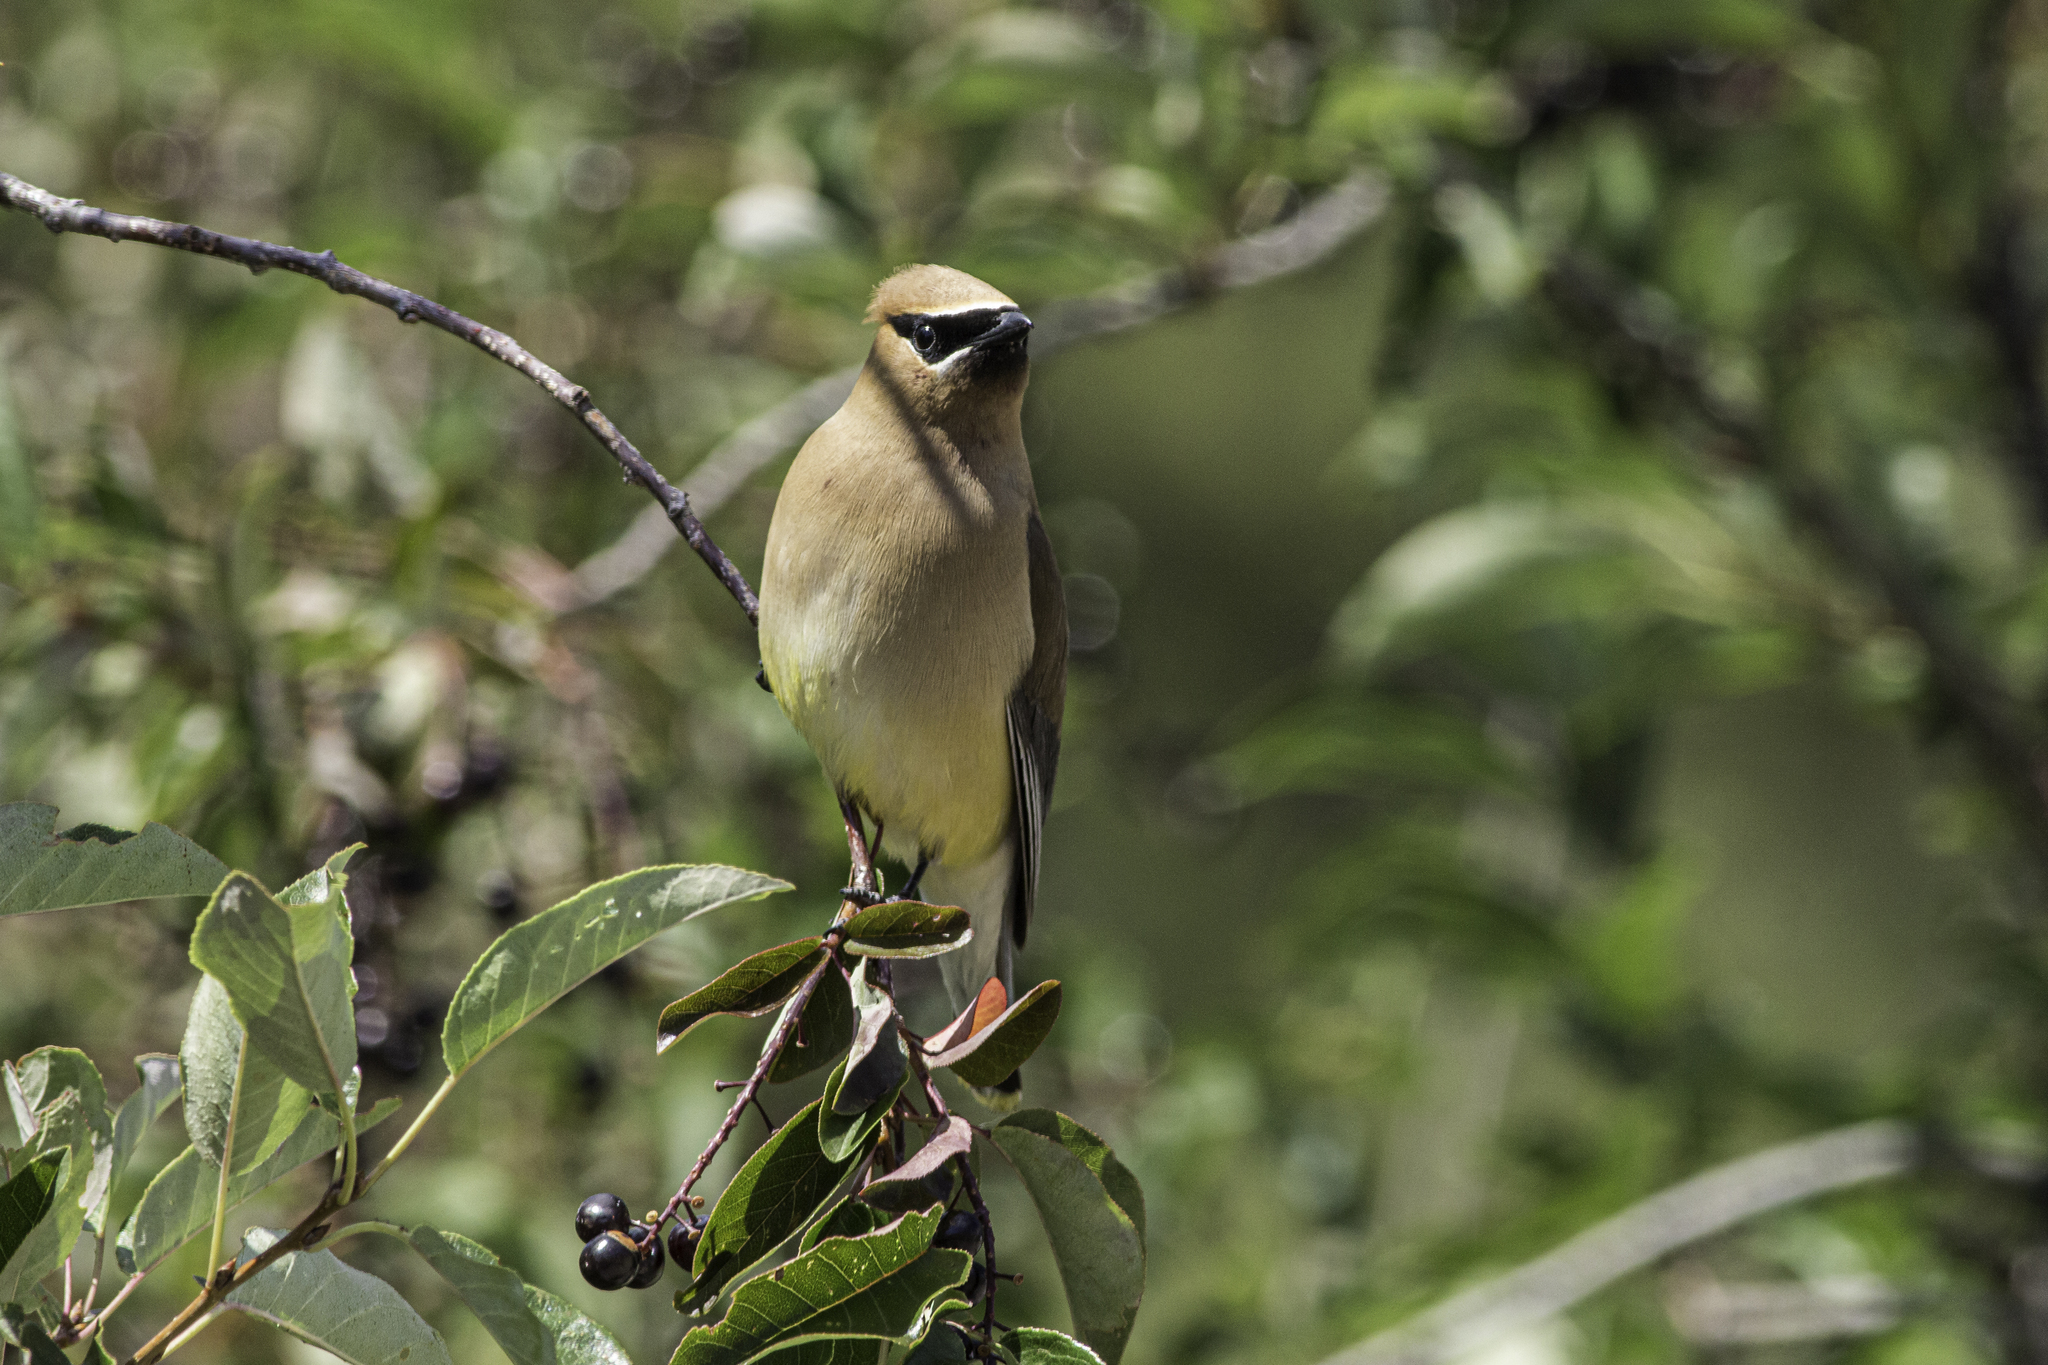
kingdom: Animalia
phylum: Chordata
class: Aves
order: Passeriformes
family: Bombycillidae
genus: Bombycilla
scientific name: Bombycilla cedrorum
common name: Cedar waxwing
